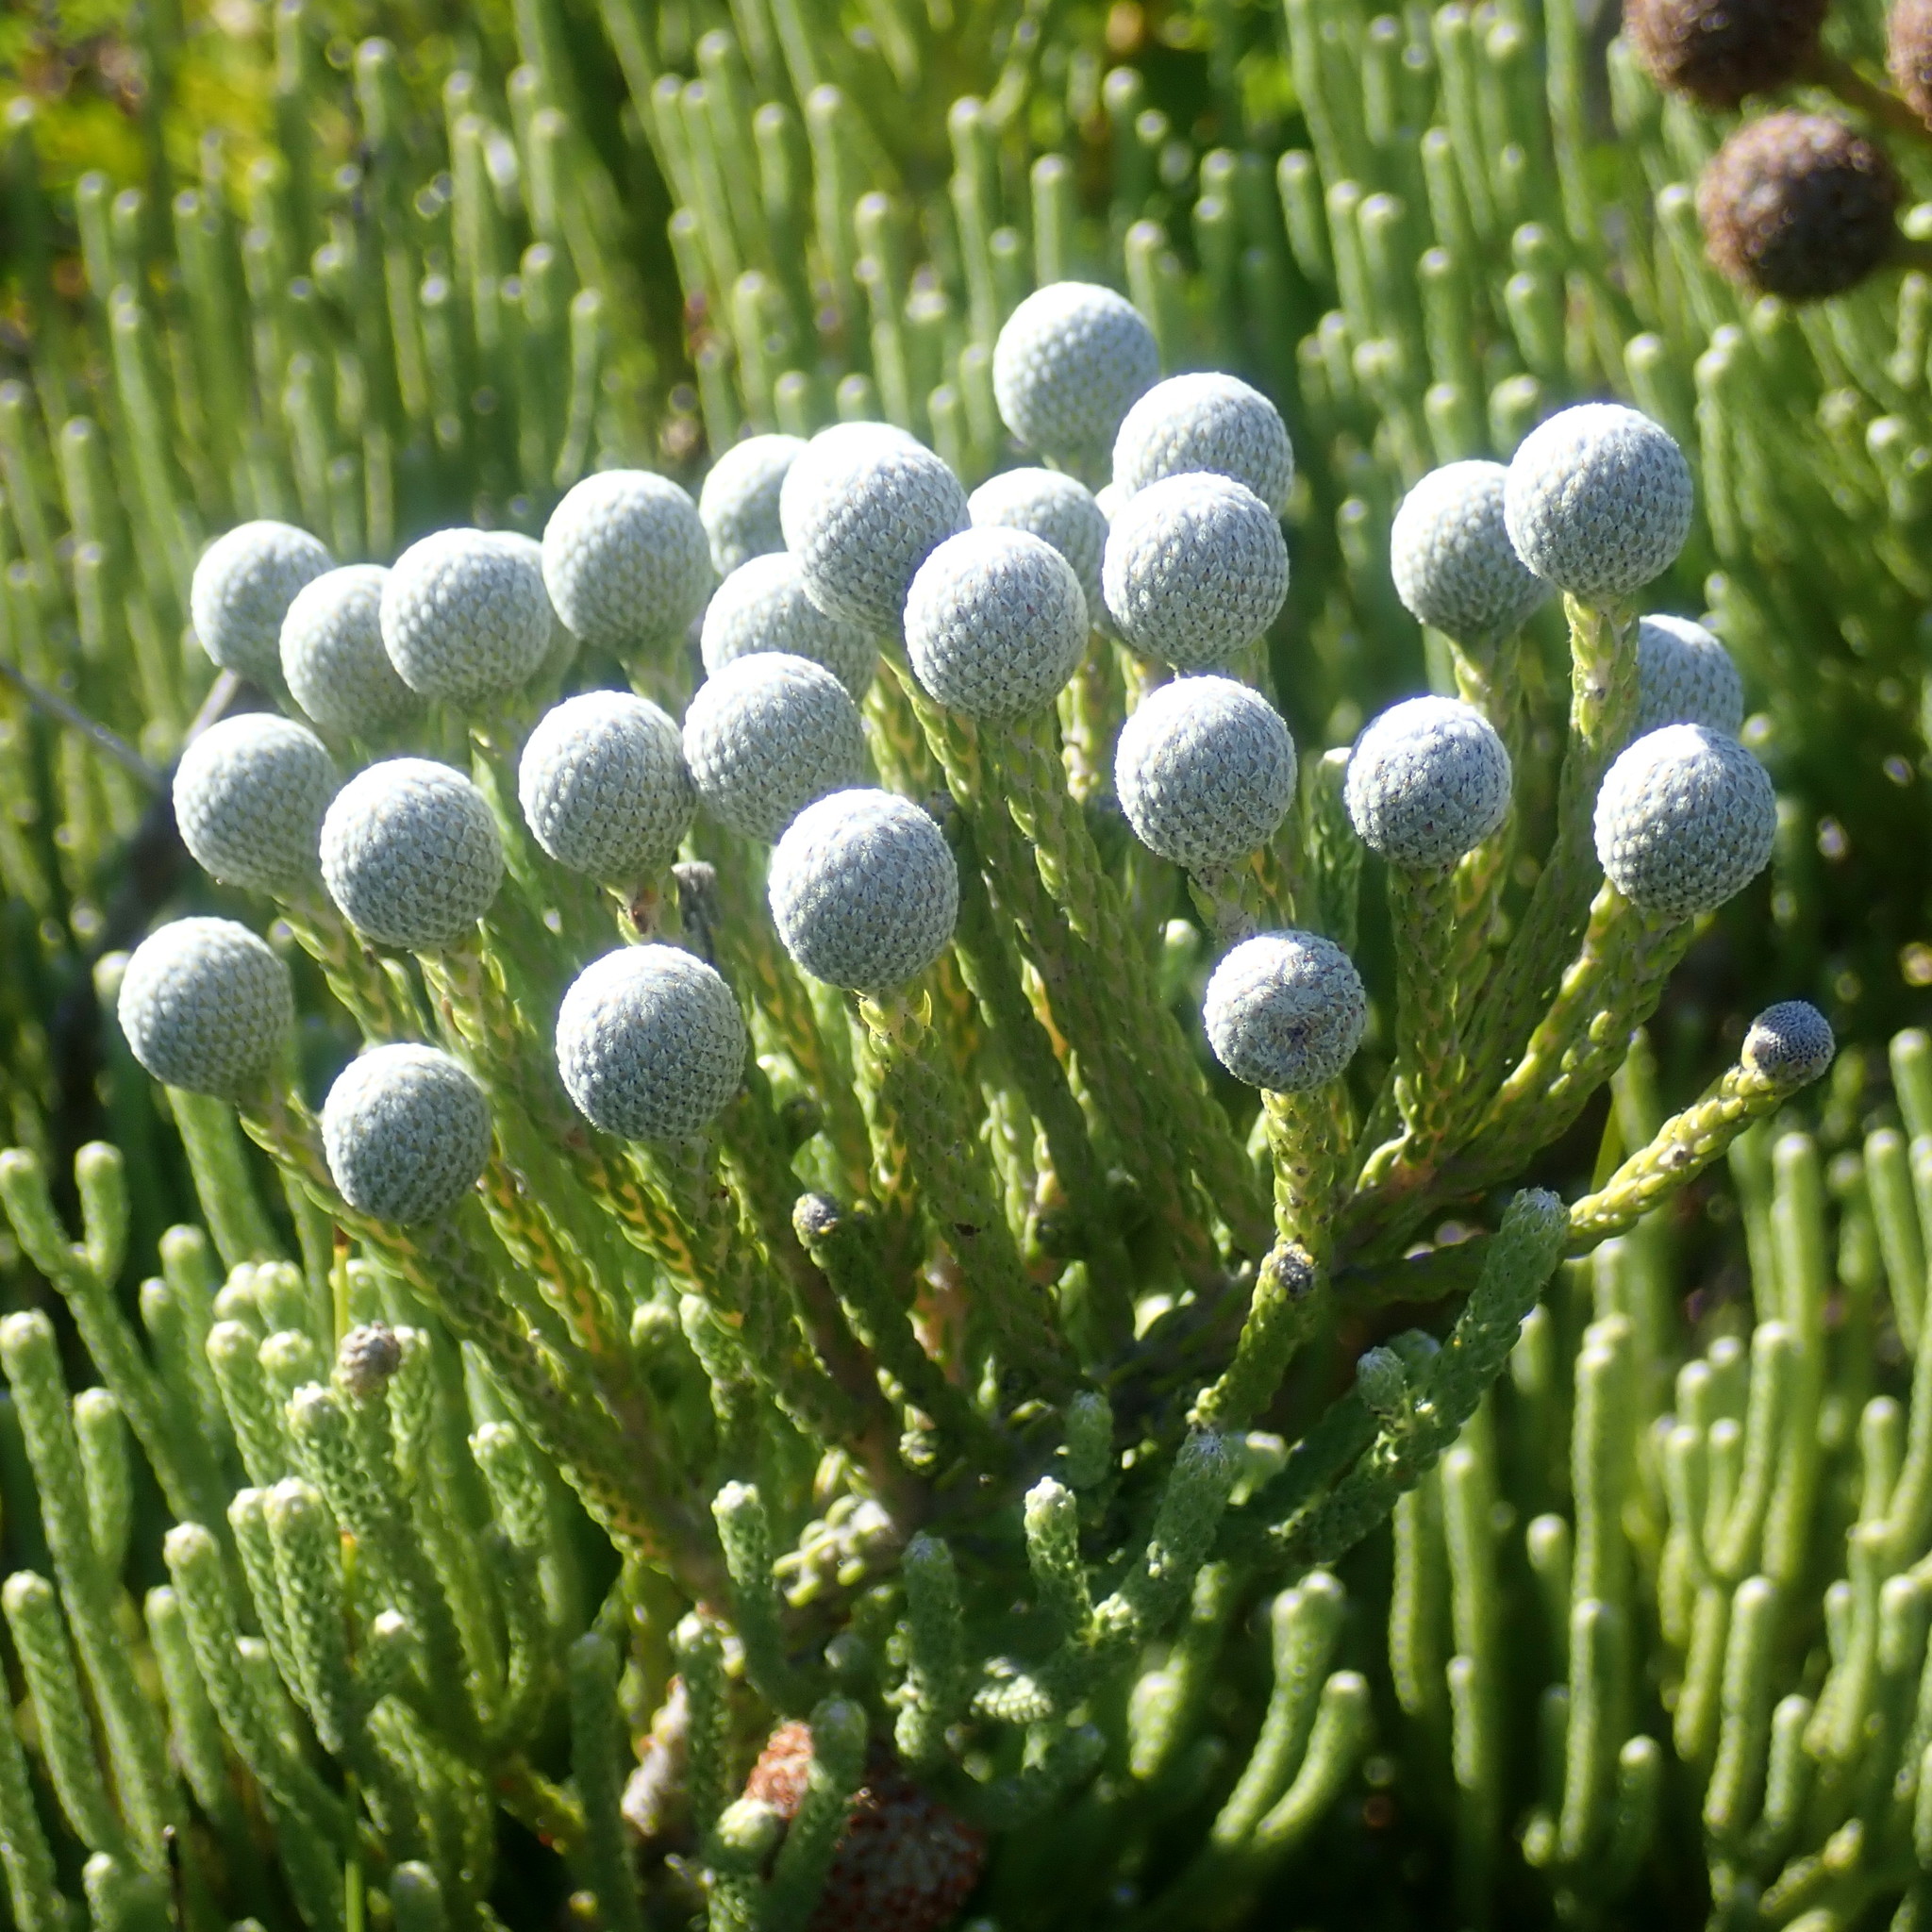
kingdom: Plantae
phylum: Tracheophyta
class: Magnoliopsida
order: Bruniales
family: Bruniaceae
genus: Brunia
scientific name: Brunia noduliflora
